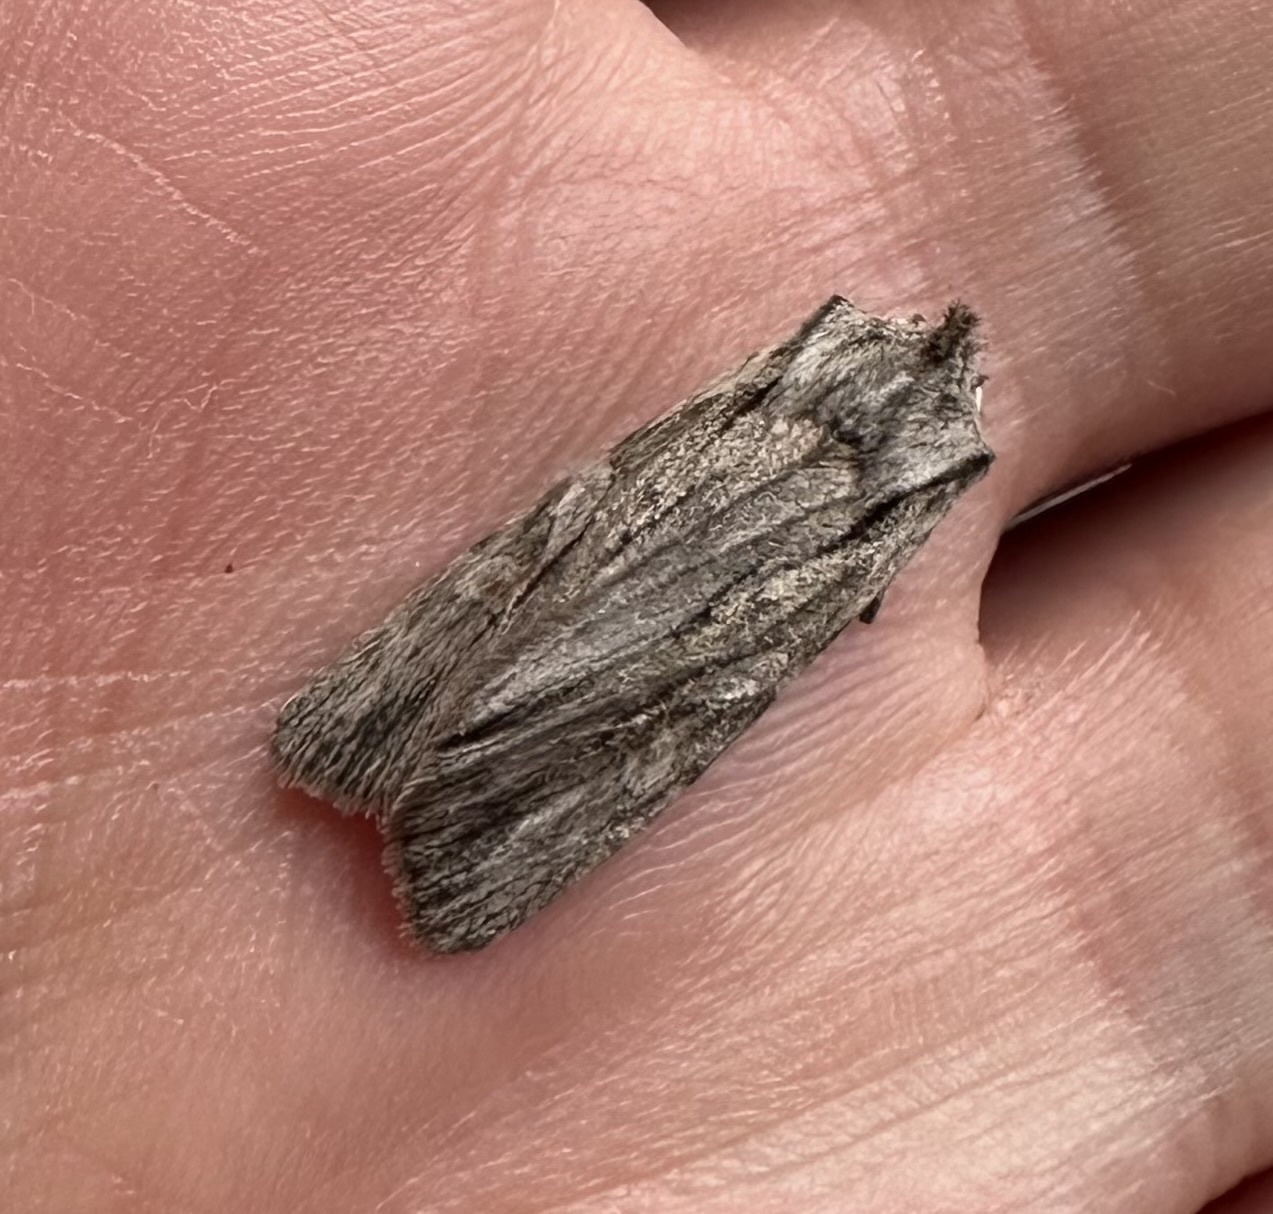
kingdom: Animalia
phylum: Arthropoda
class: Insecta
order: Lepidoptera
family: Noctuidae
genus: Lithophane
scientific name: Lithophane leautieri
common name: Blair's shoulder-knot
